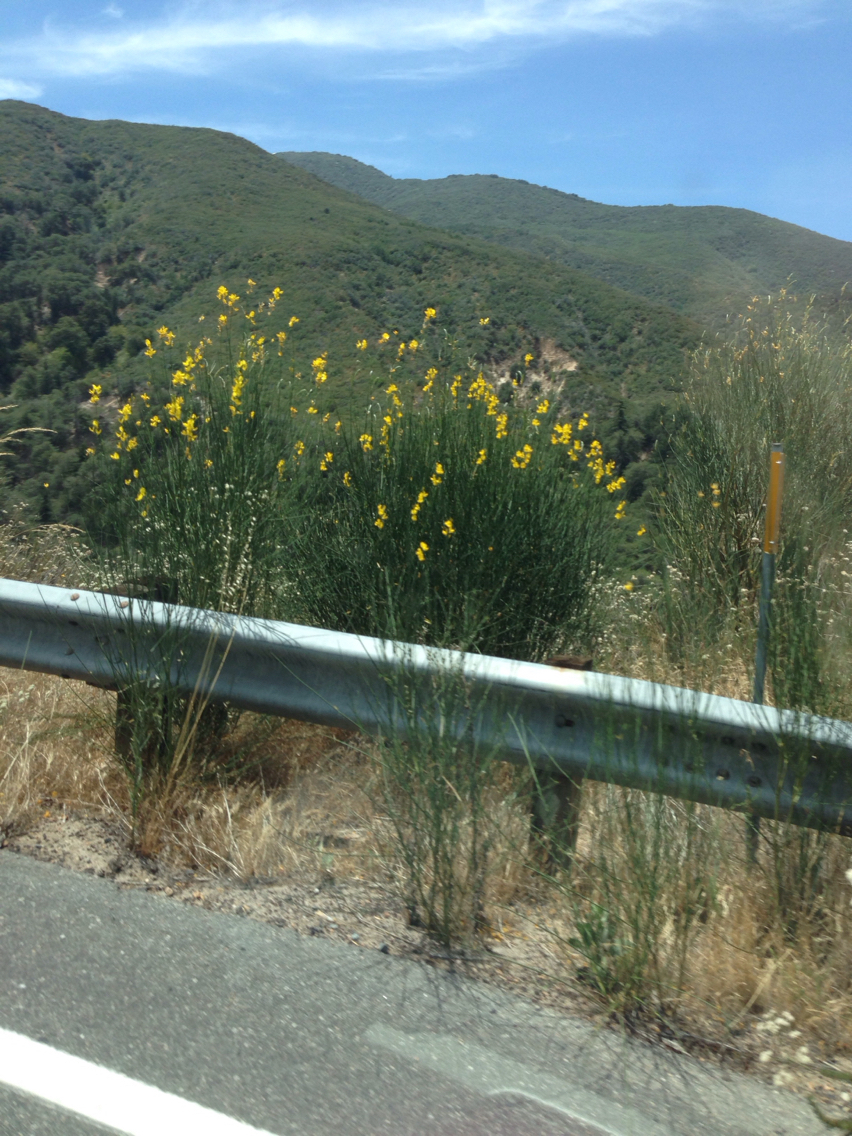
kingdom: Plantae
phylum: Tracheophyta
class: Magnoliopsida
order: Fabales
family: Fabaceae
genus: Spartium
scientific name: Spartium junceum
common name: Spanish broom
